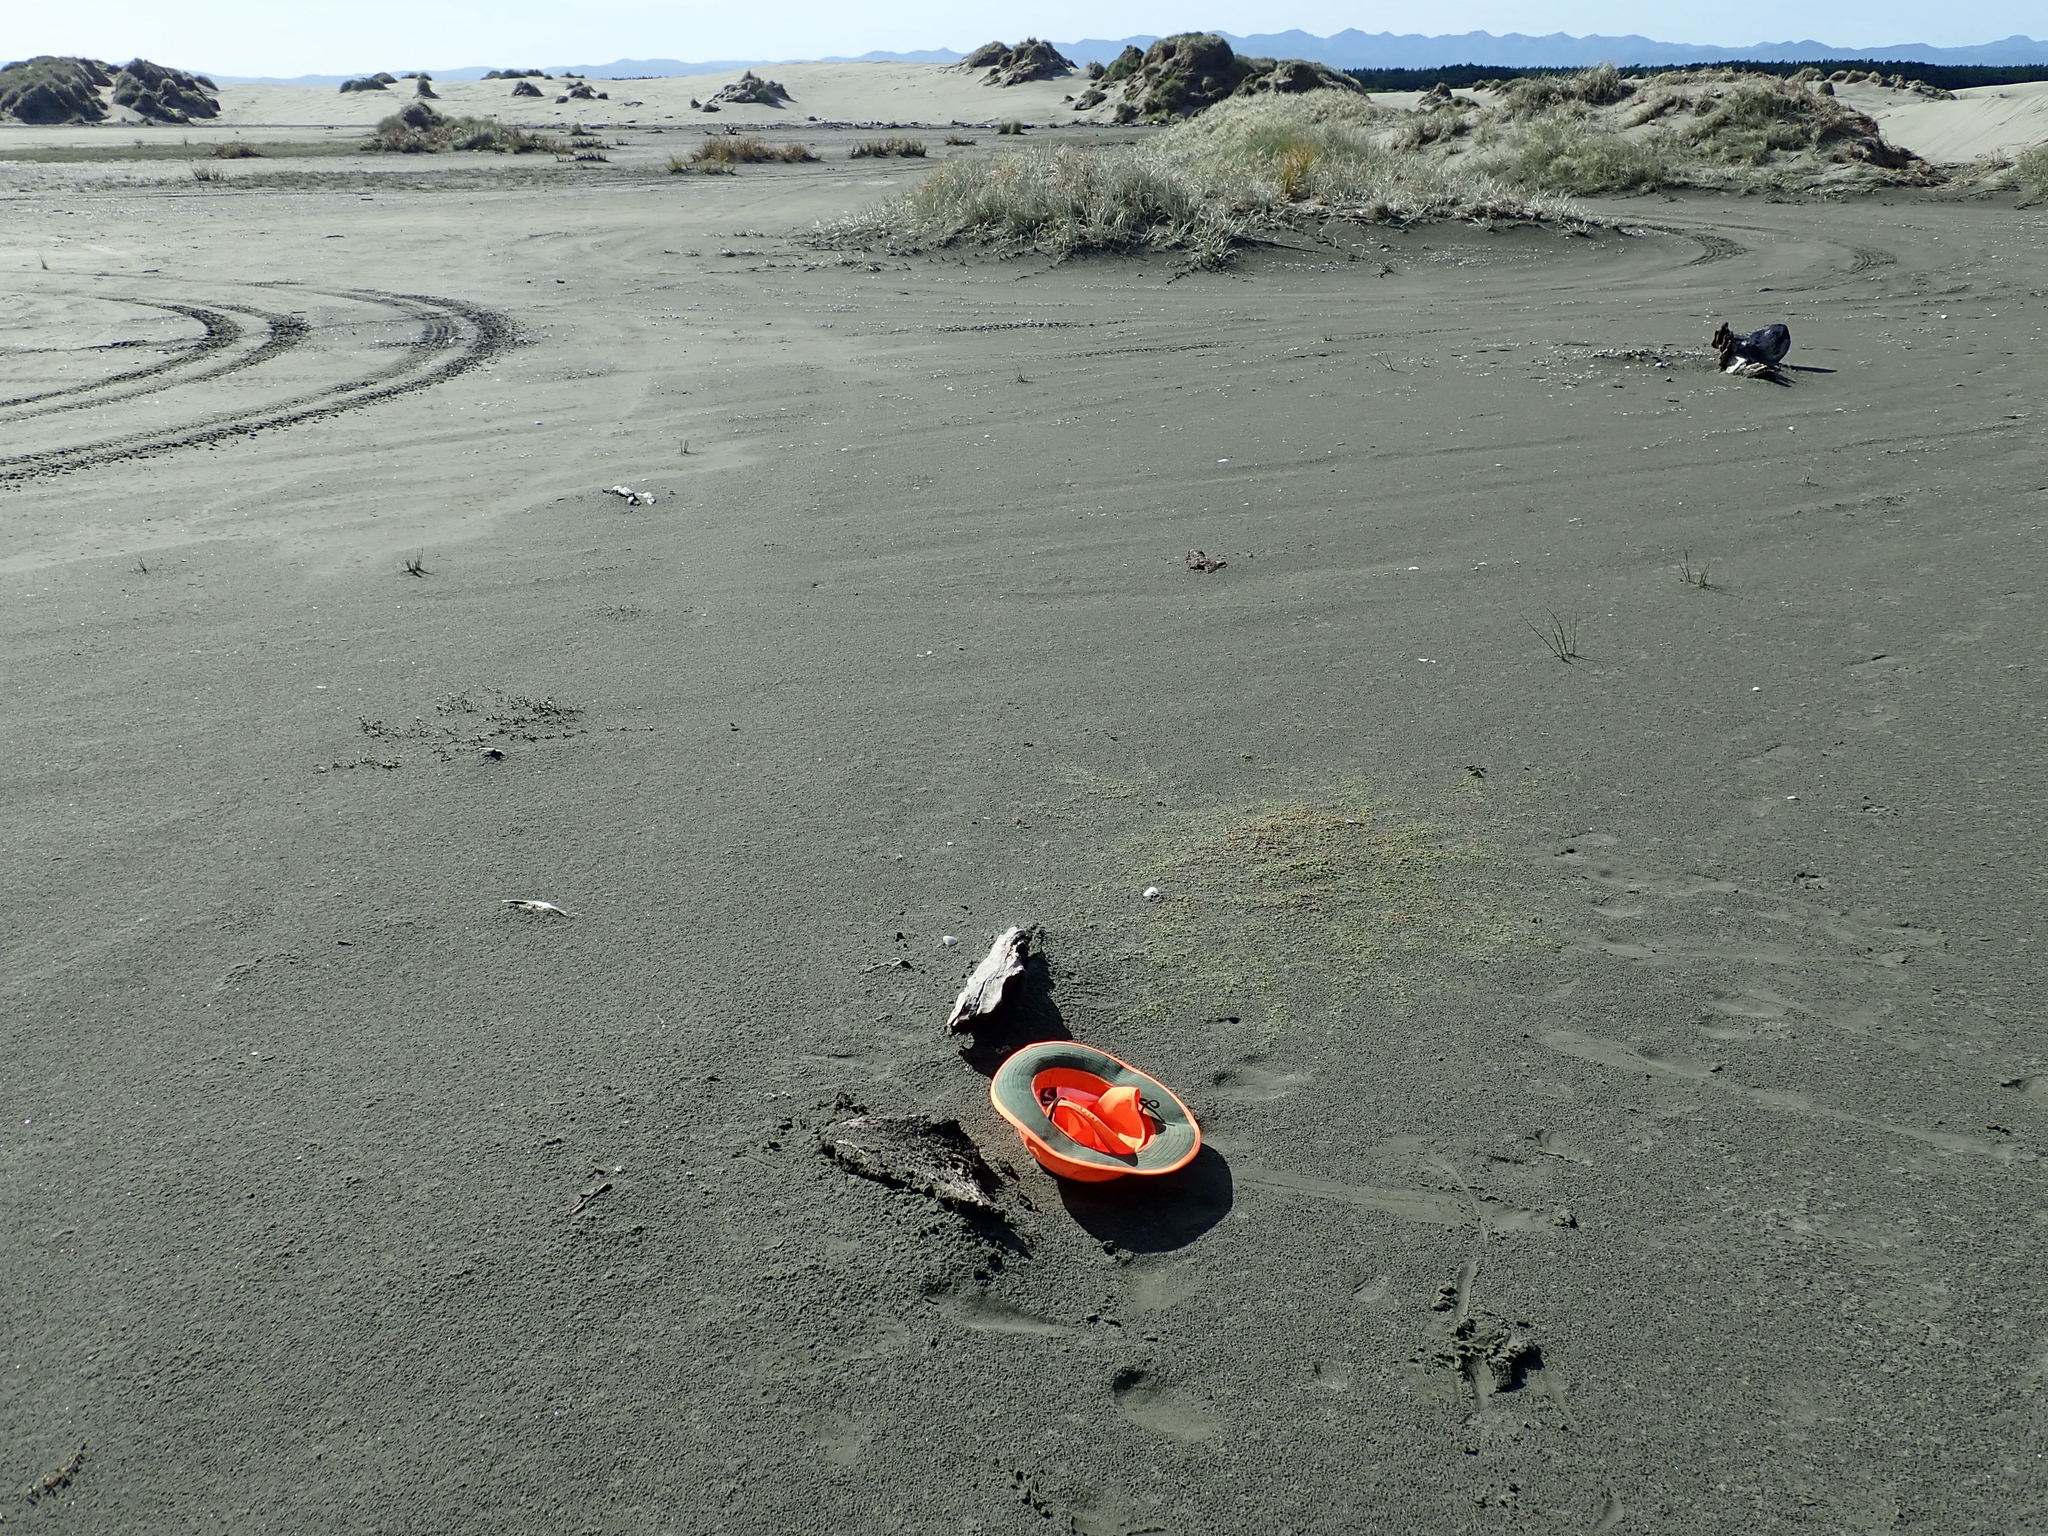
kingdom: Animalia
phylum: Arthropoda
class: Insecta
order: Coleoptera
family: Curculionidae
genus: Eutornus
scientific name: Eutornus littoralis
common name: Driftwood weevil
